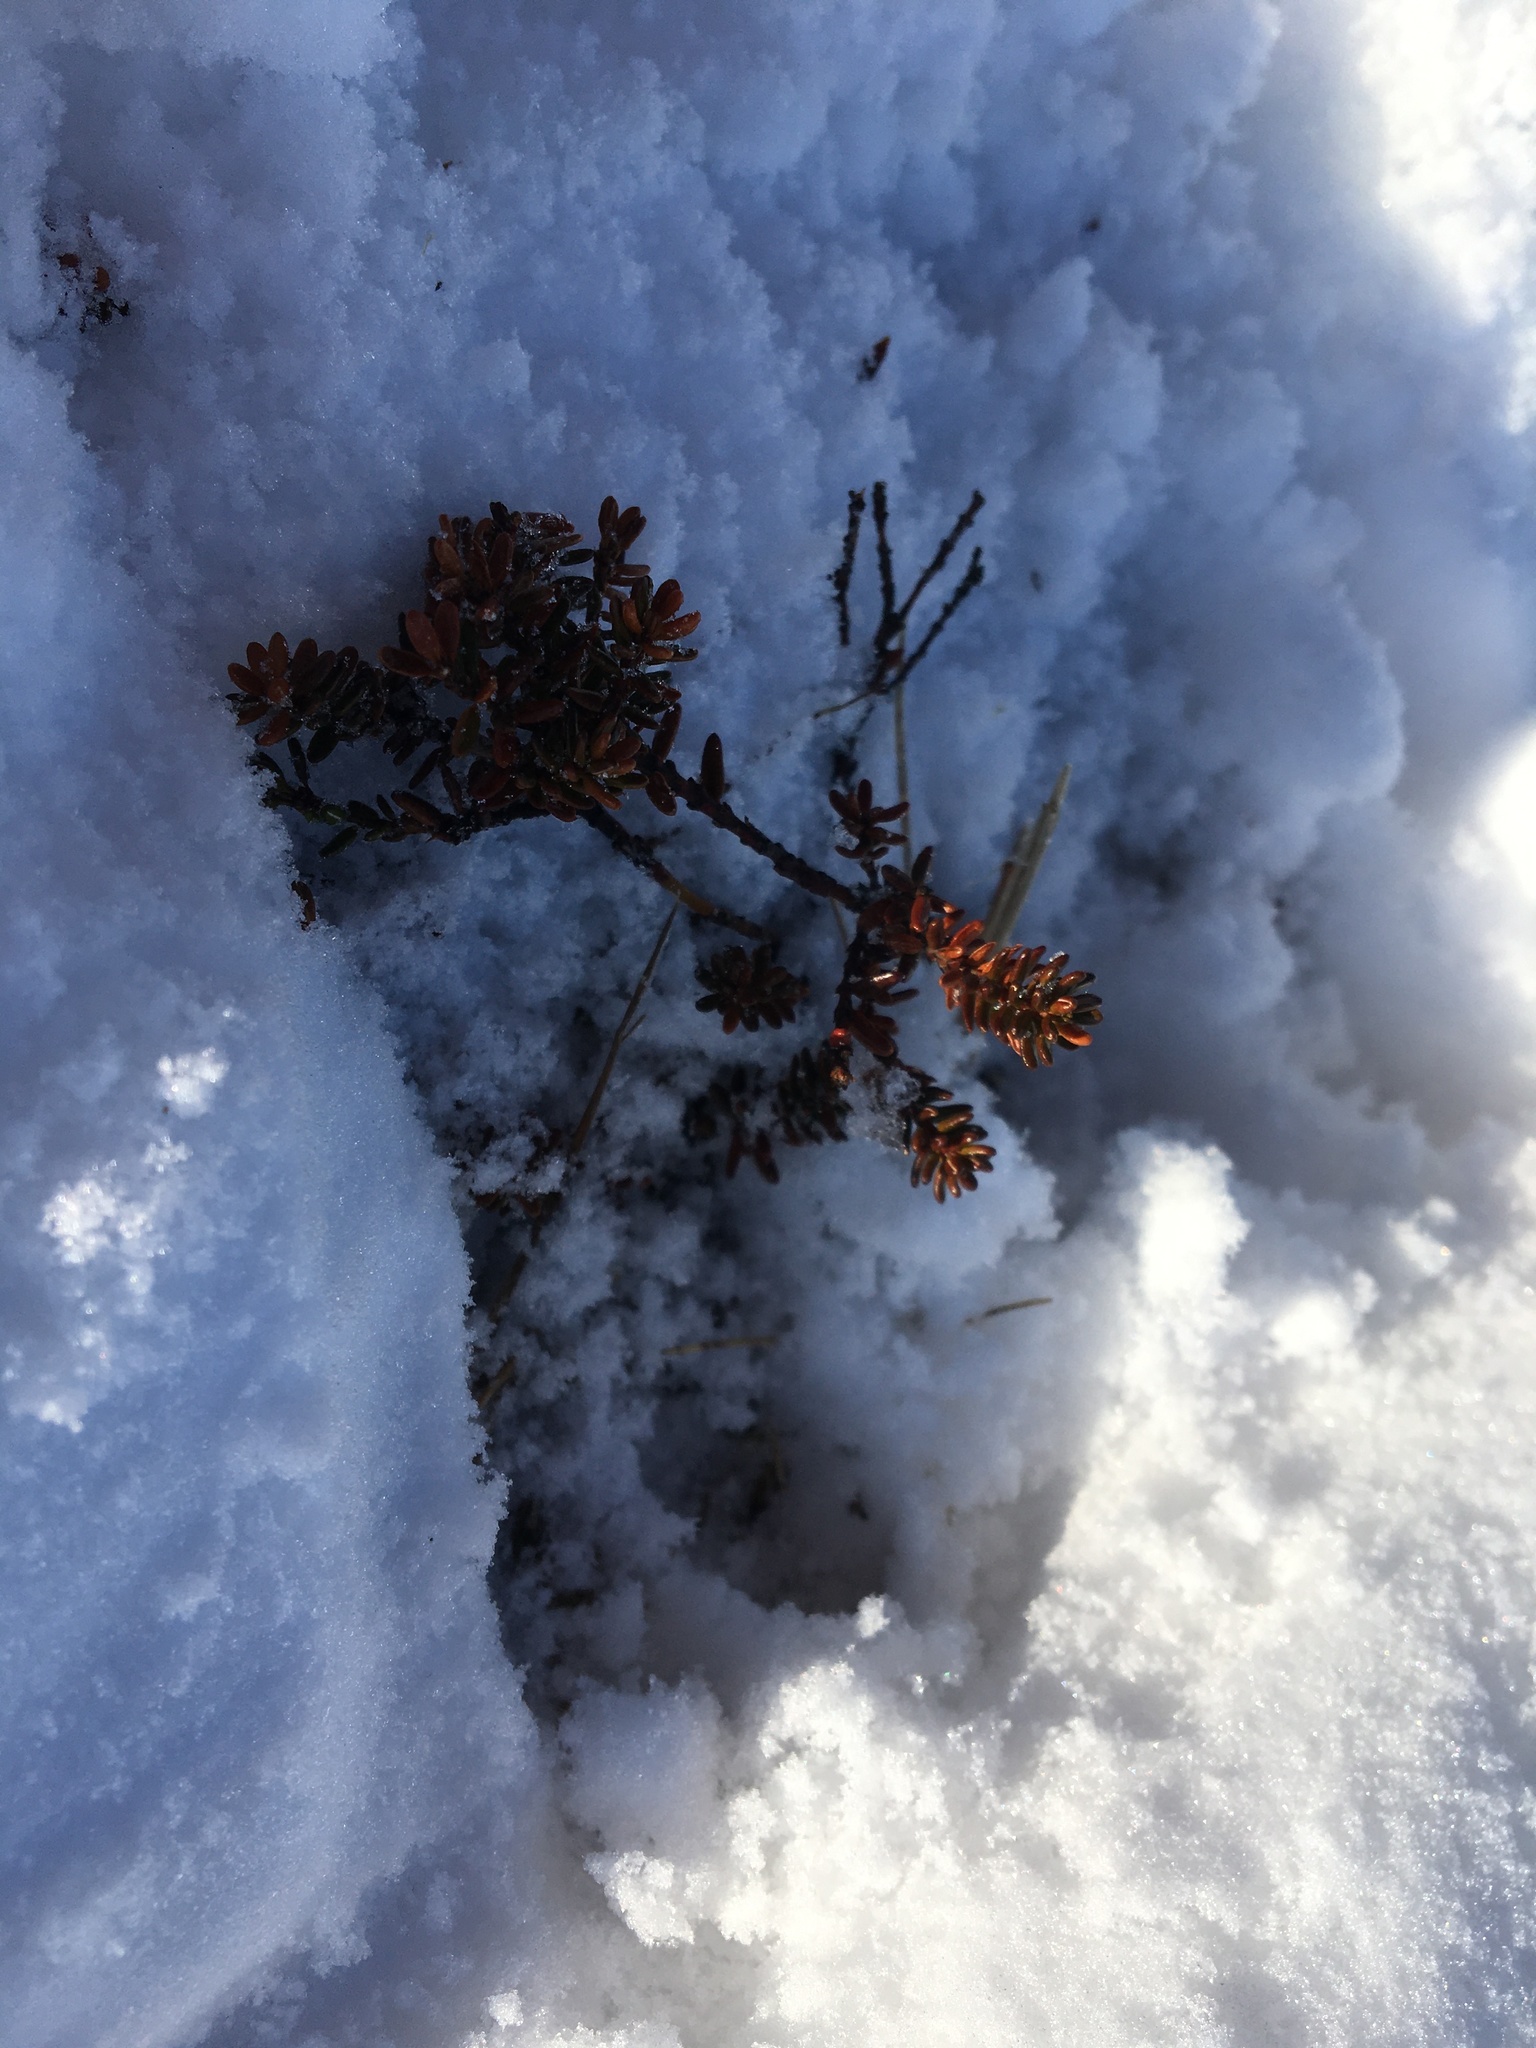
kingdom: Plantae
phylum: Tracheophyta
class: Magnoliopsida
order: Ericales
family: Ericaceae
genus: Empetrum
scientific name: Empetrum nigrum
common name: Black crowberry
